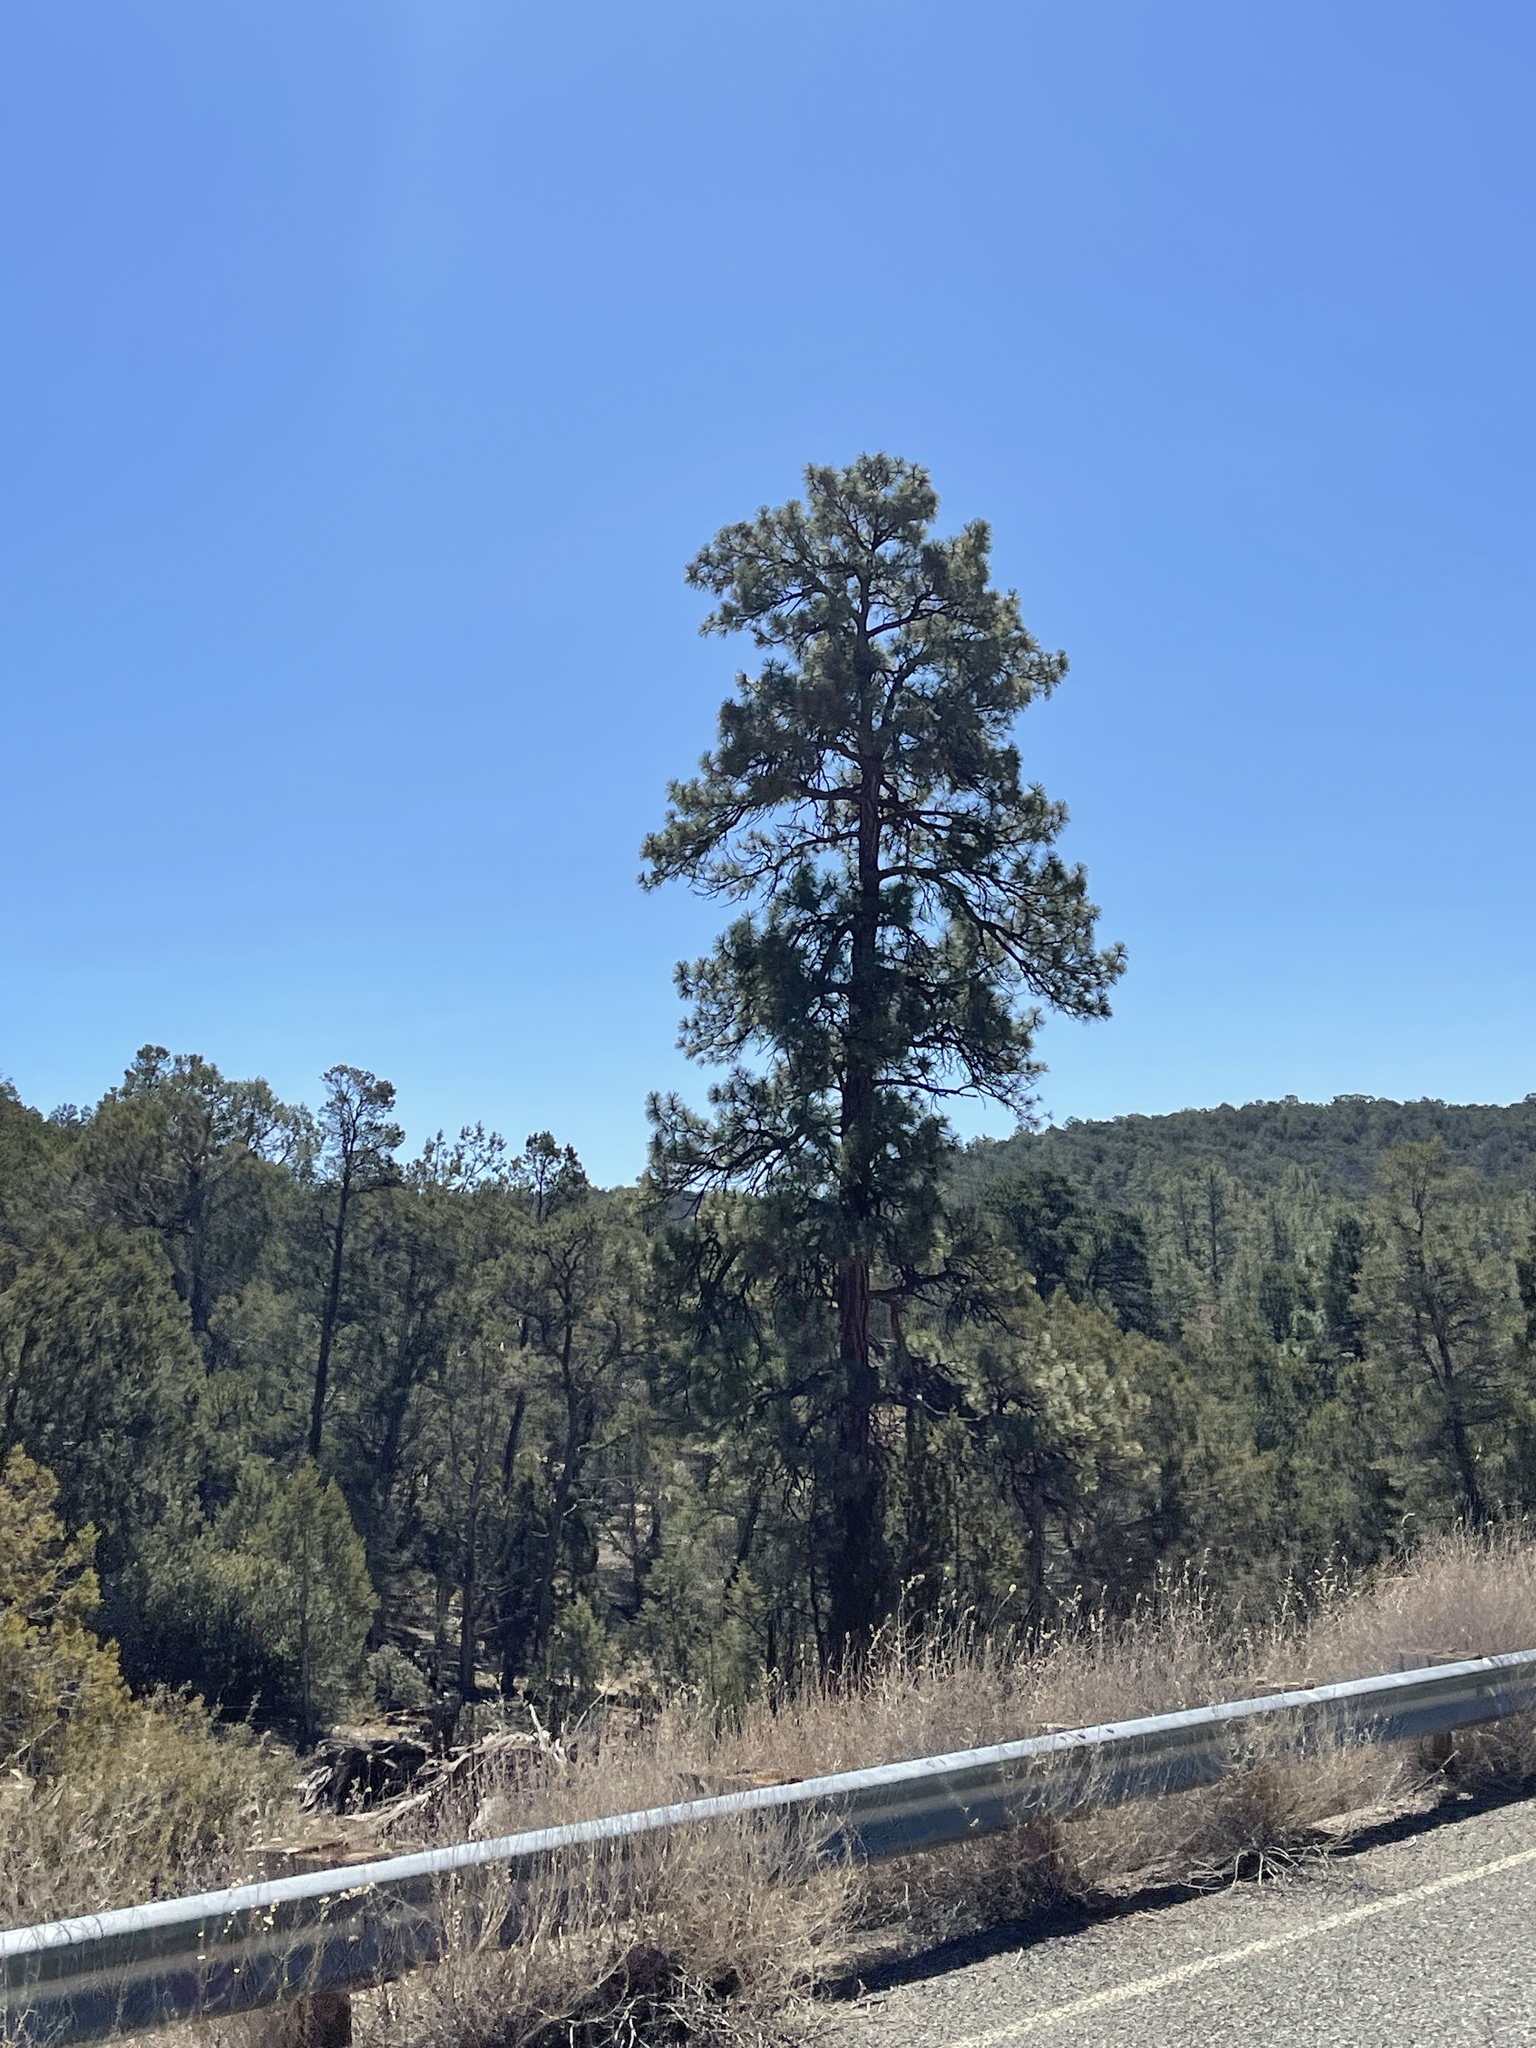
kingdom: Plantae
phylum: Tracheophyta
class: Pinopsida
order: Pinales
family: Pinaceae
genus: Pinus
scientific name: Pinus ponderosa
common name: Western yellow-pine
